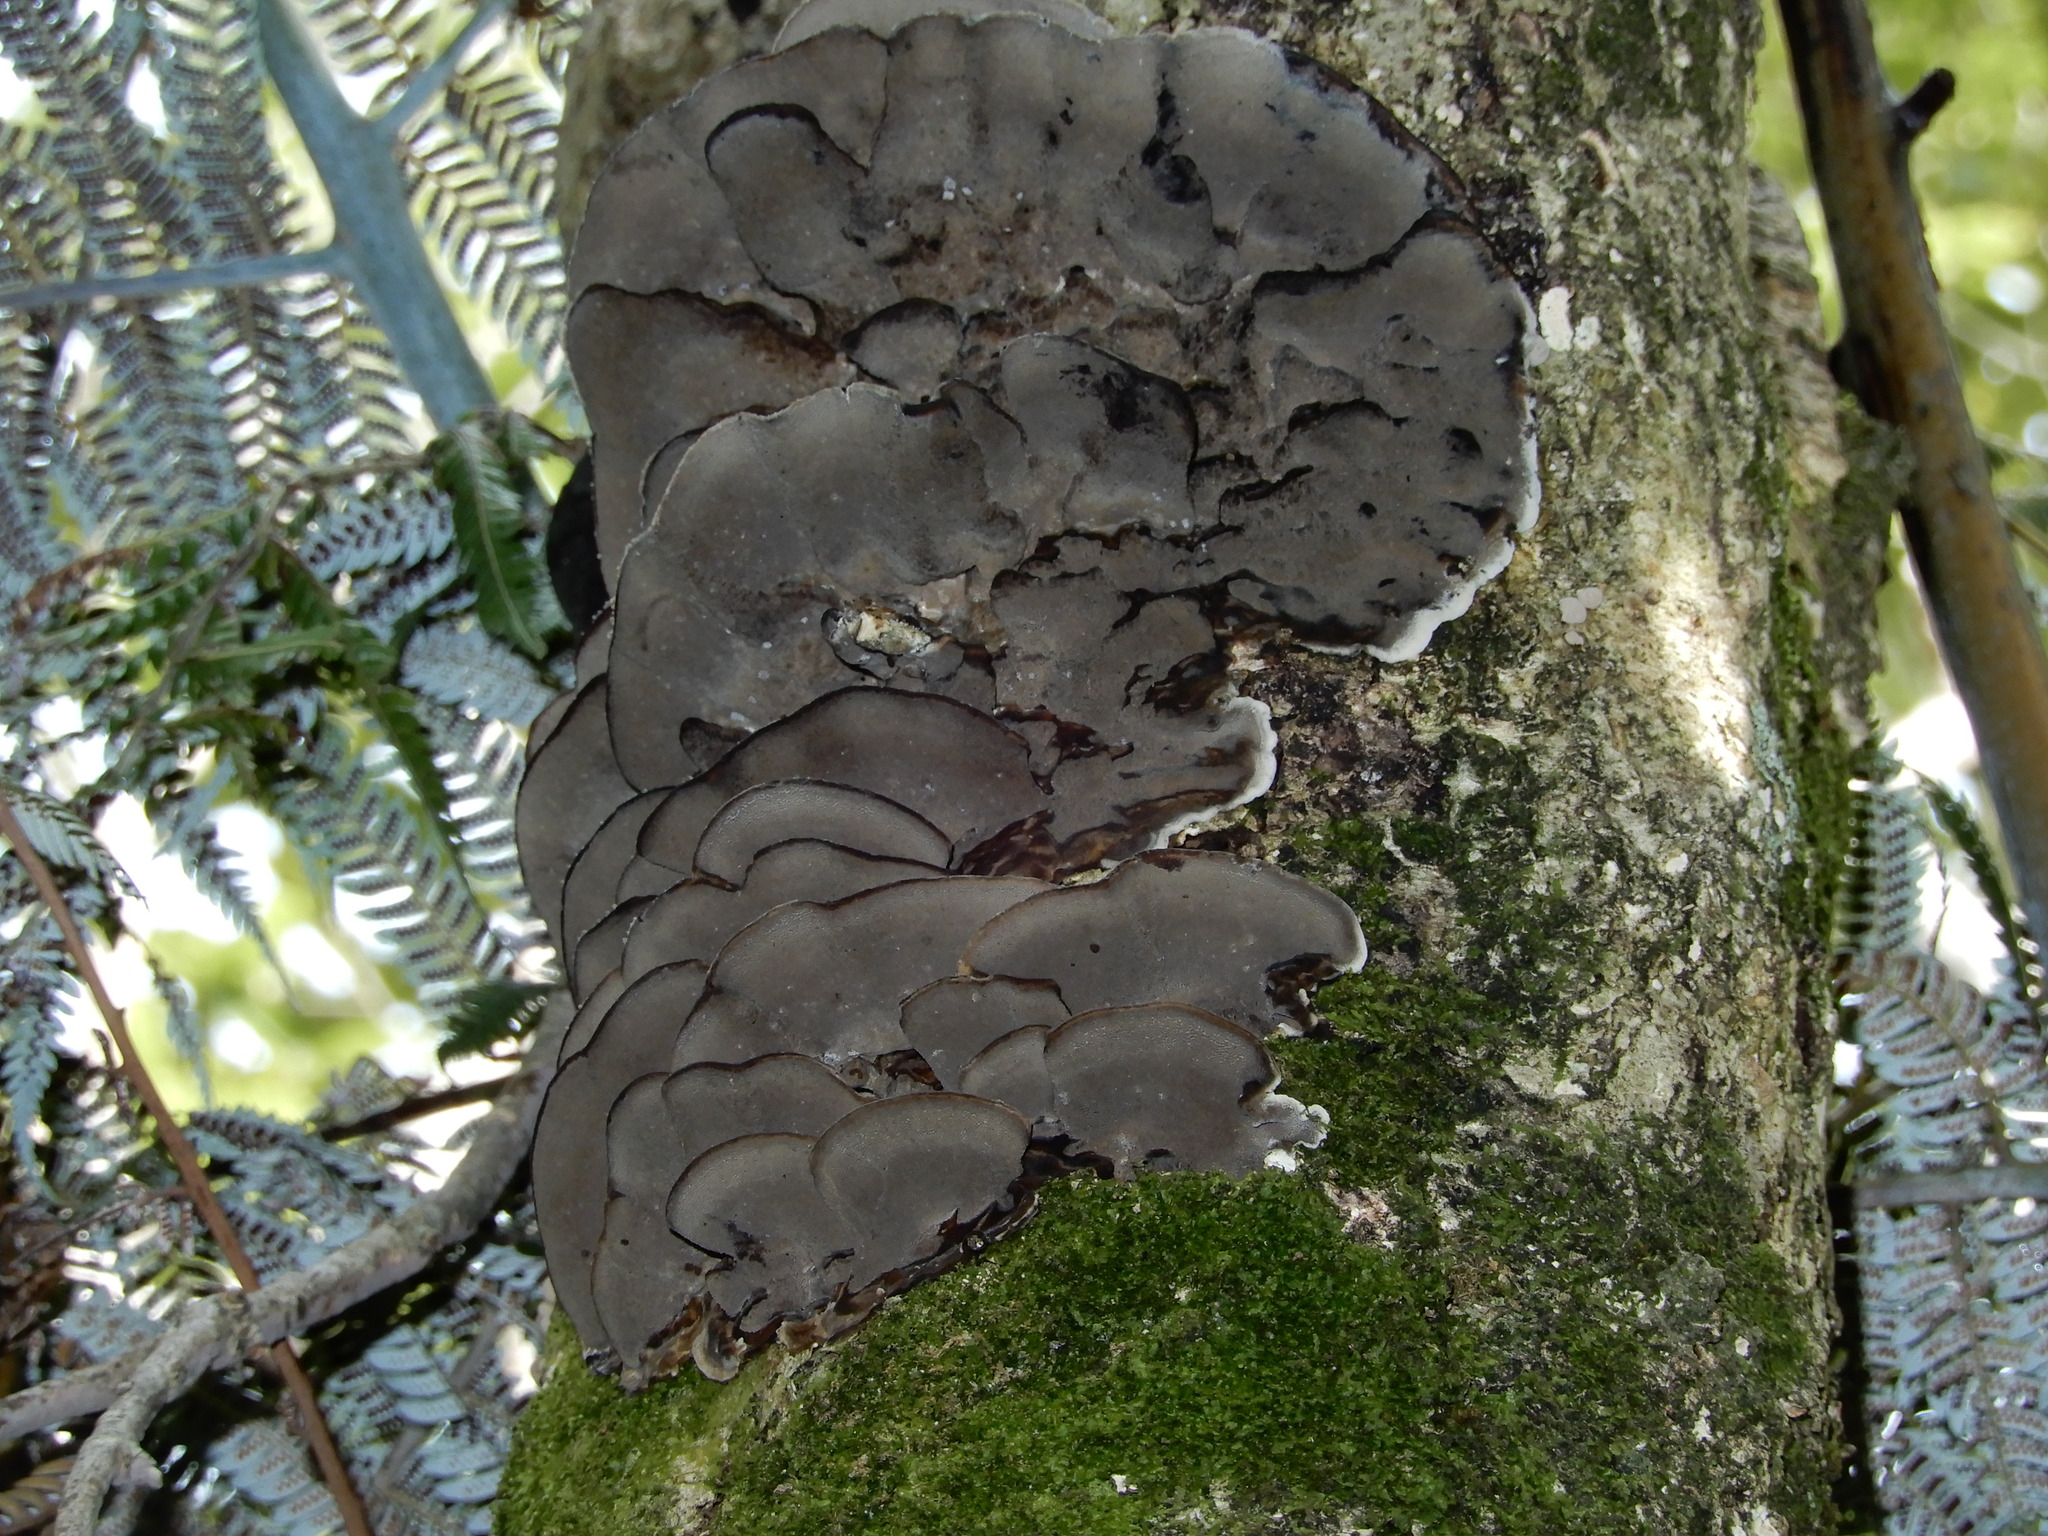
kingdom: Fungi
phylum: Basidiomycota
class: Agaricomycetes
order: Polyporales
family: Phanerochaetaceae
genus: Bjerkandera
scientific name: Bjerkandera adusta
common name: Smoky bracket
